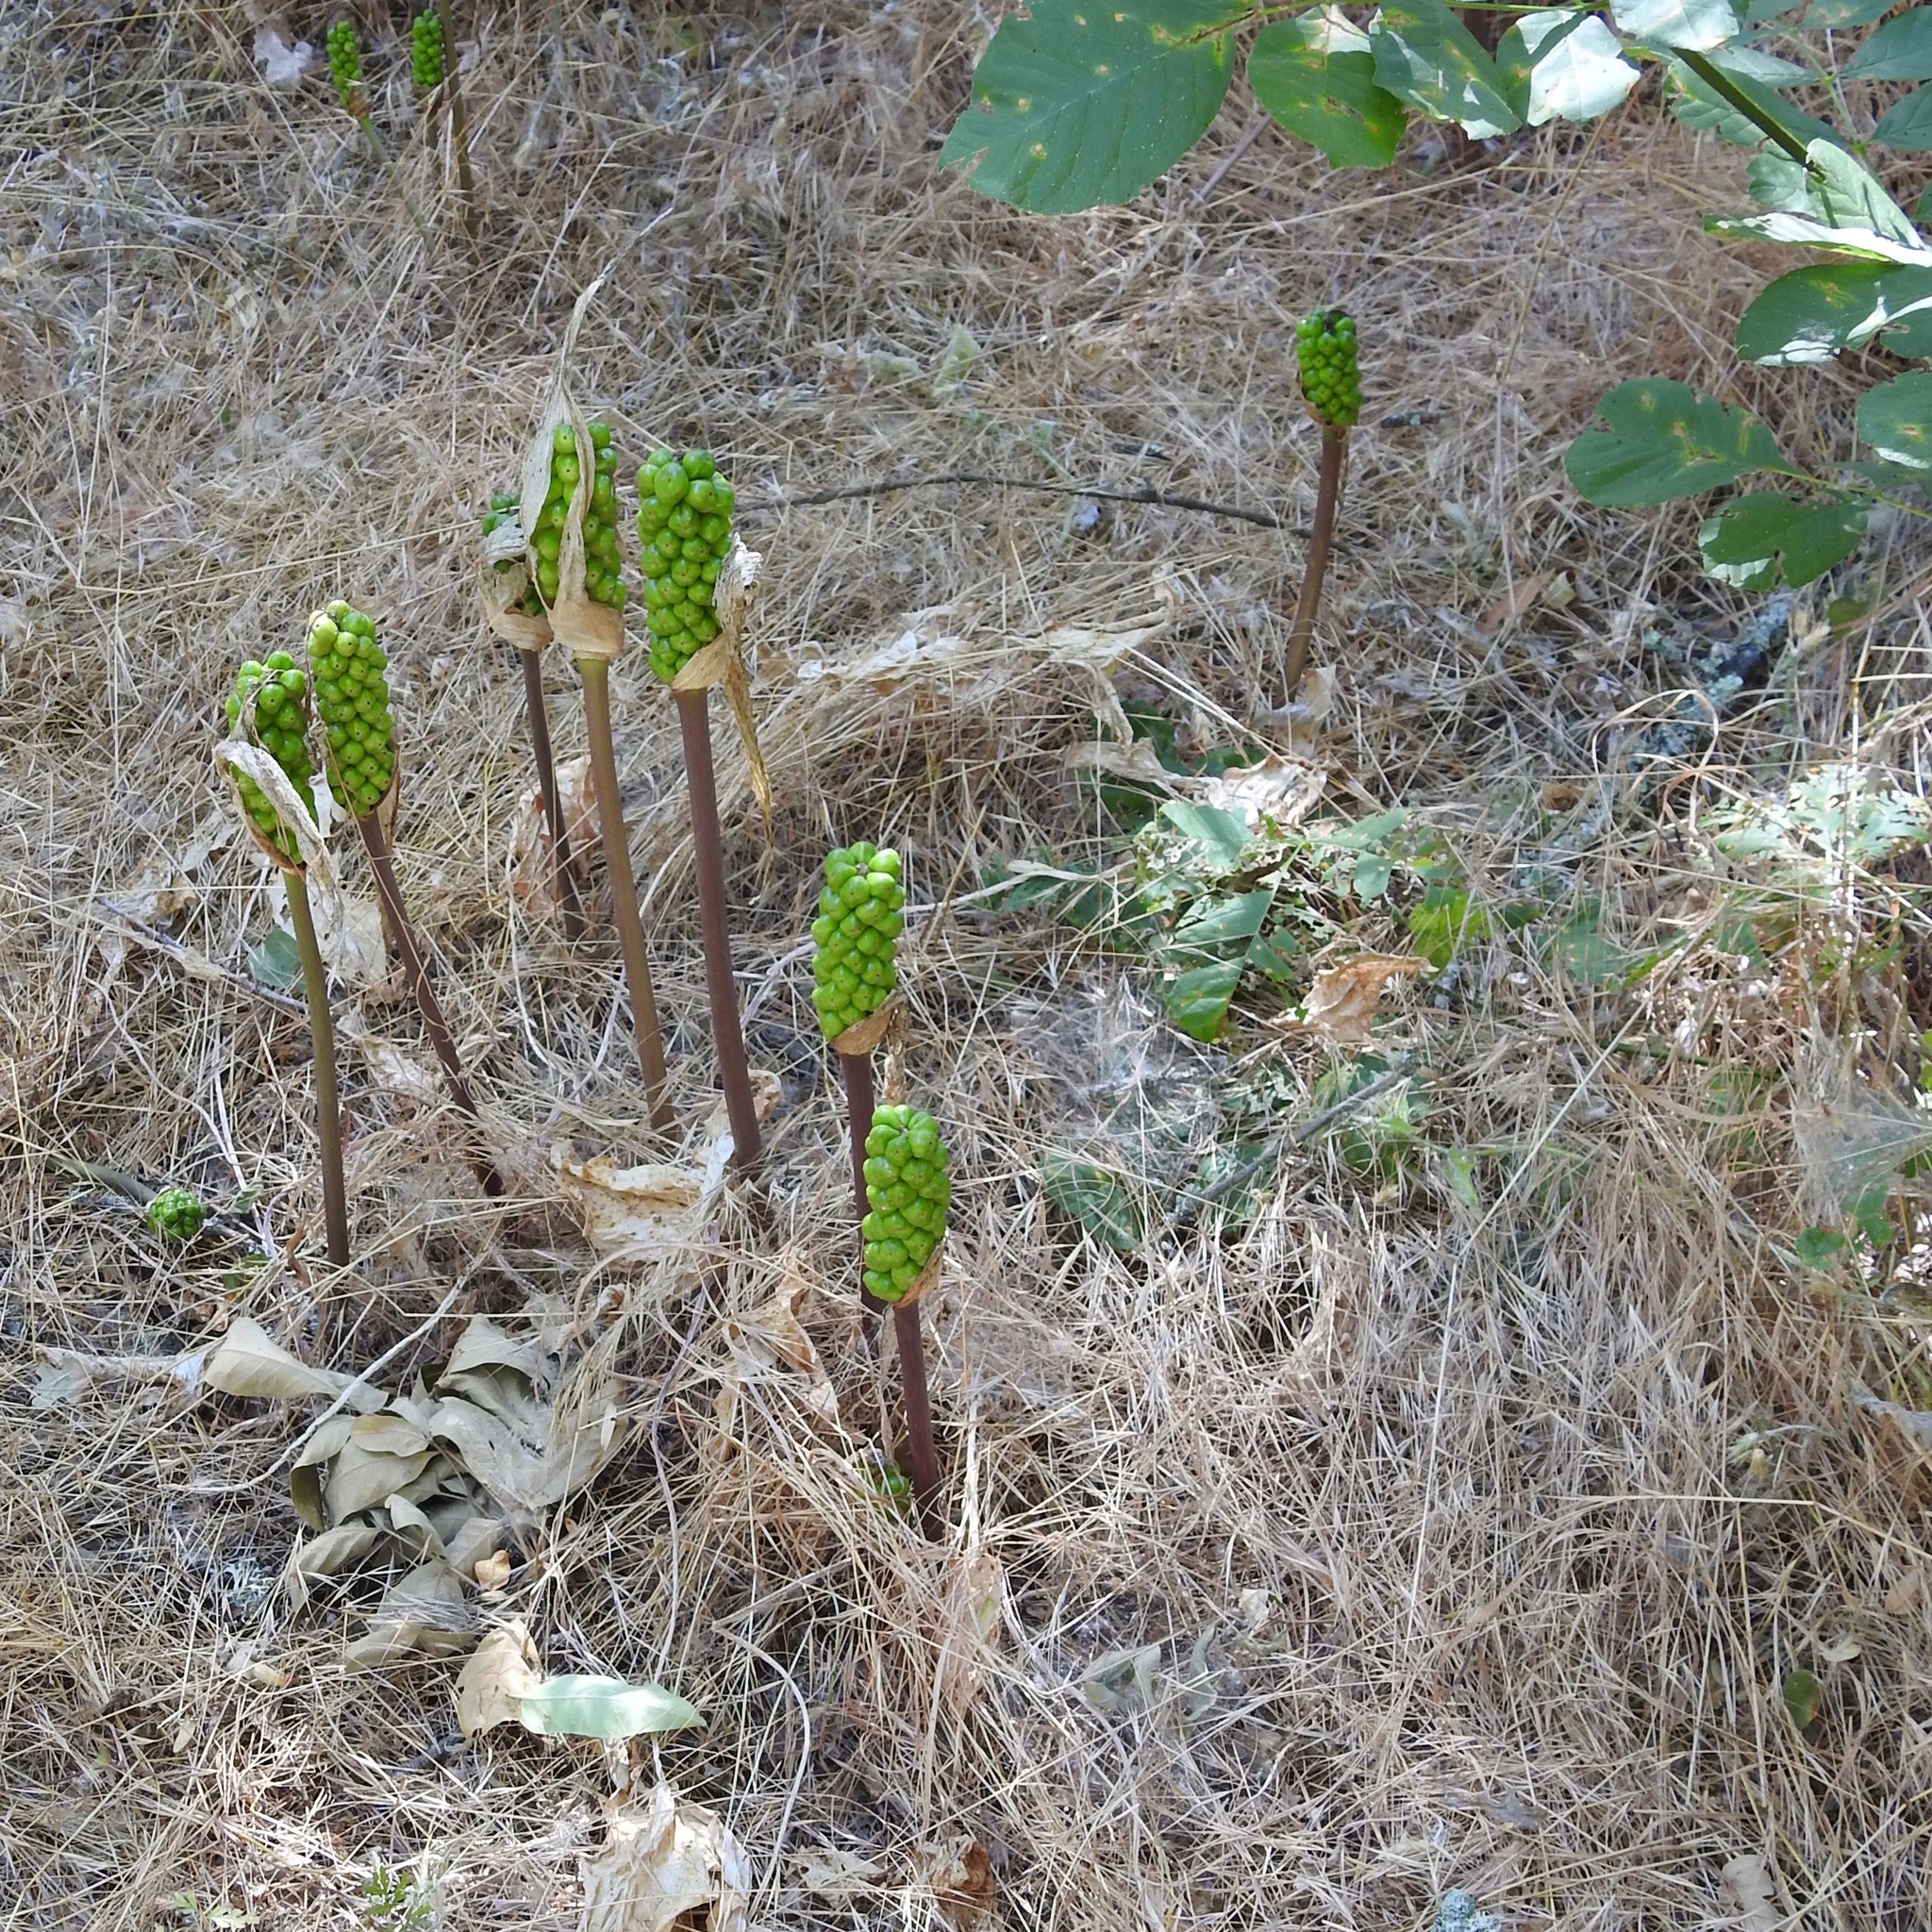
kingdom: Plantae
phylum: Tracheophyta
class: Liliopsida
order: Alismatales
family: Araceae
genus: Arum
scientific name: Arum italicum
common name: Italian lords-and-ladies
